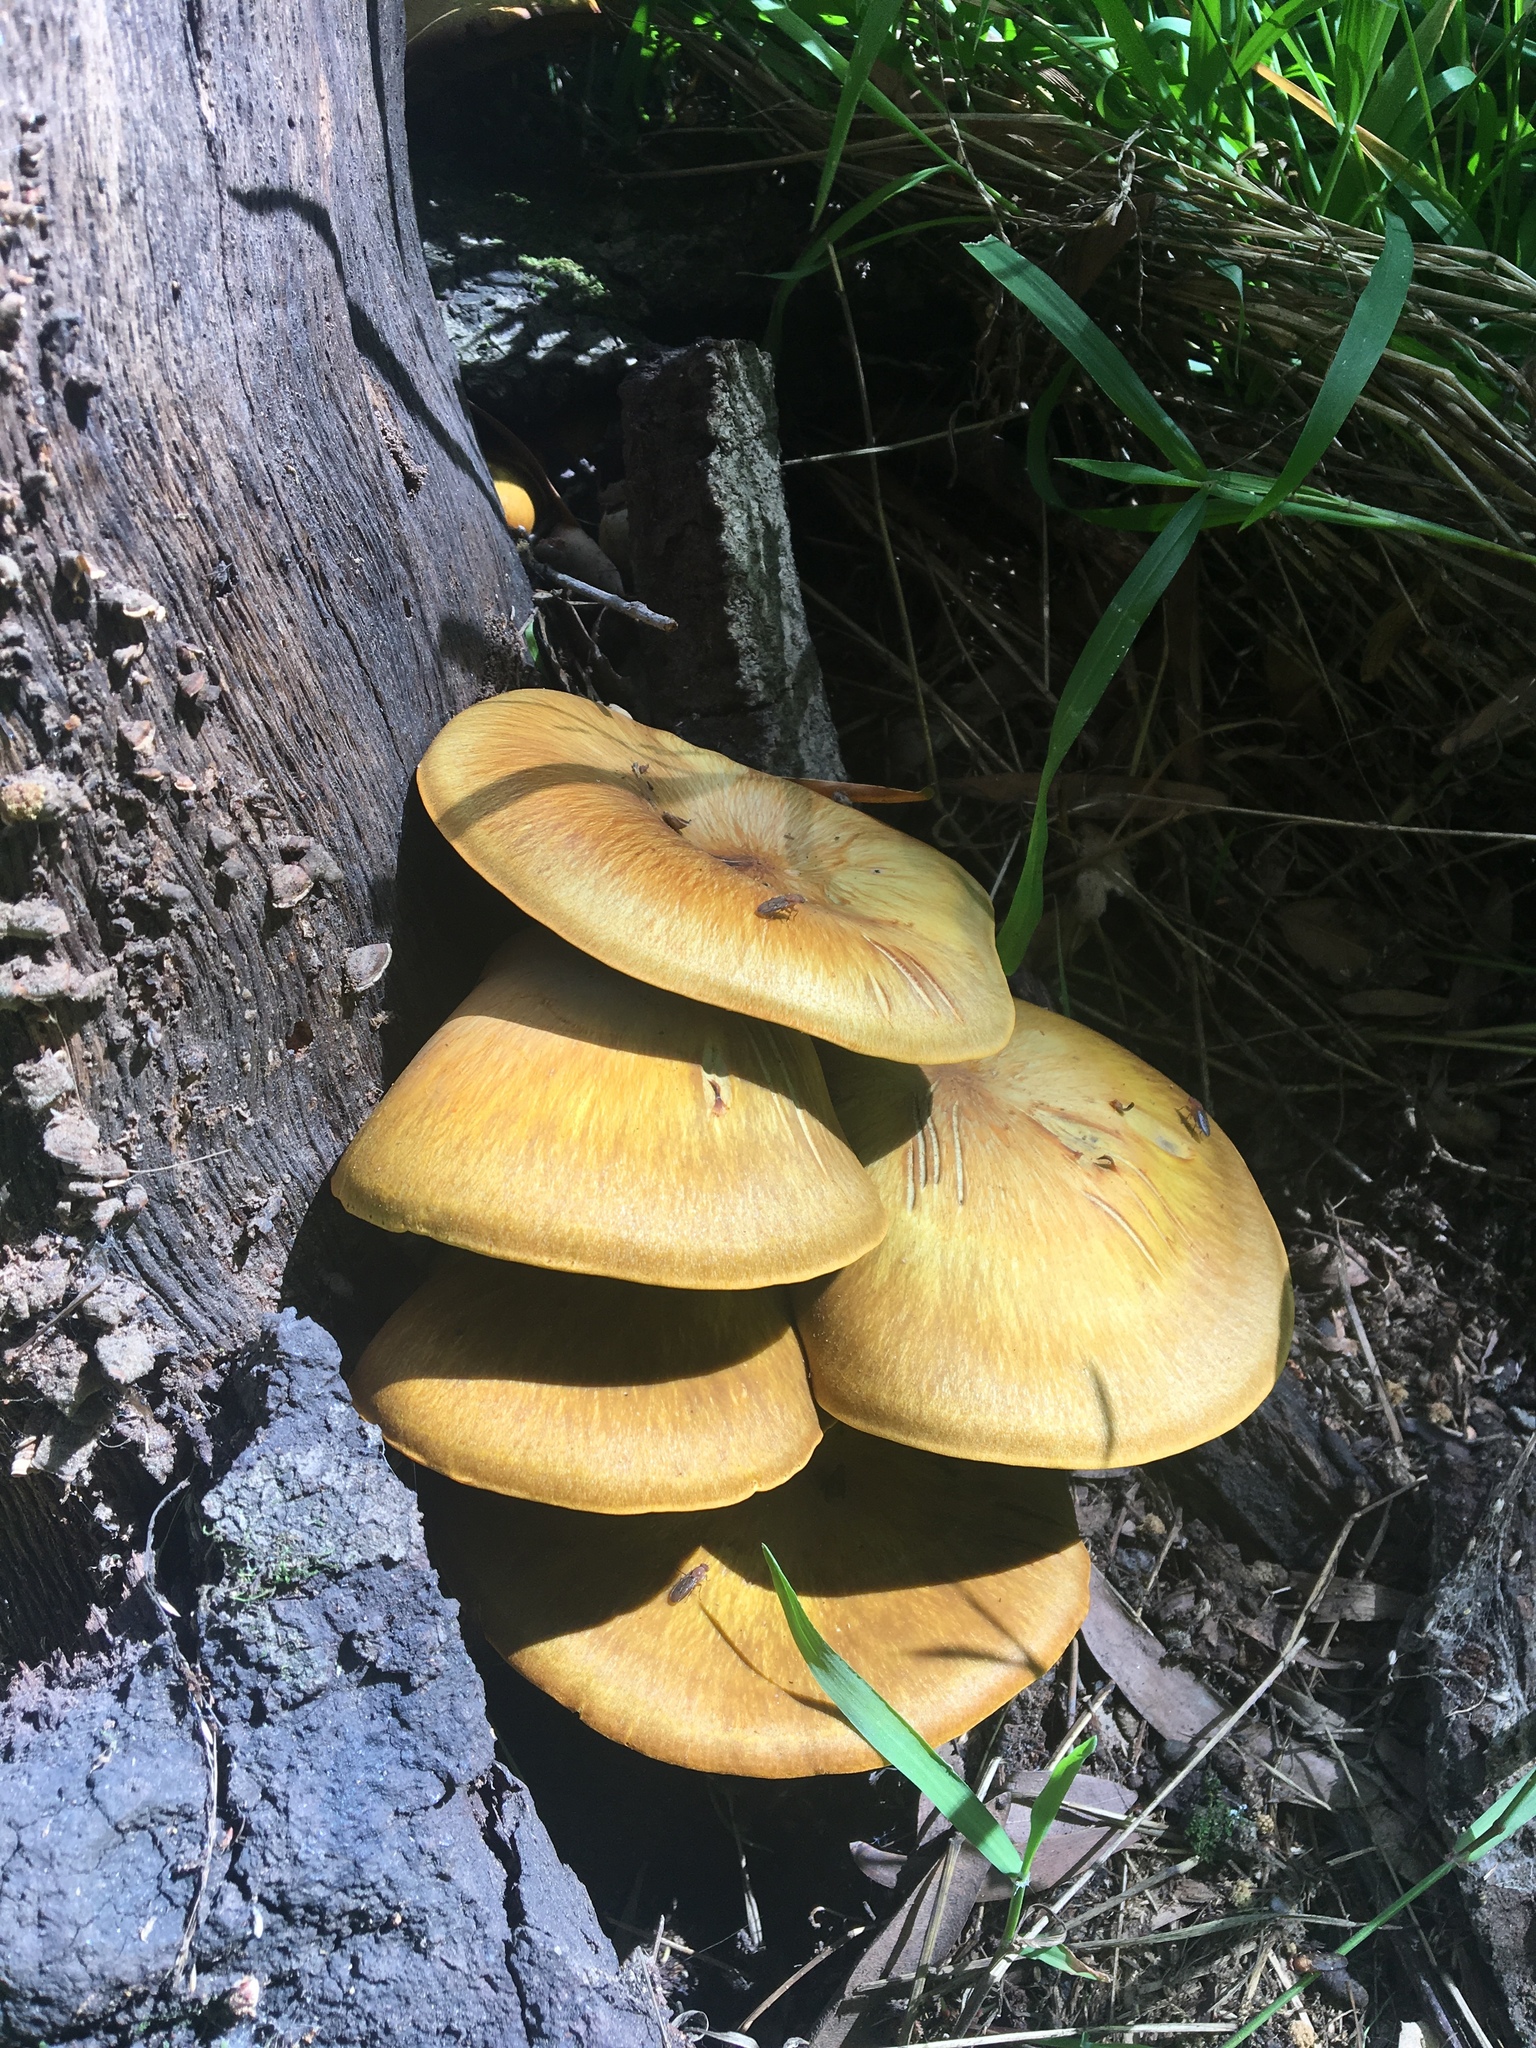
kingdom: Fungi
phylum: Basidiomycota
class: Agaricomycetes
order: Agaricales
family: Omphalotaceae
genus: Omphalotus
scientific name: Omphalotus olivascens
